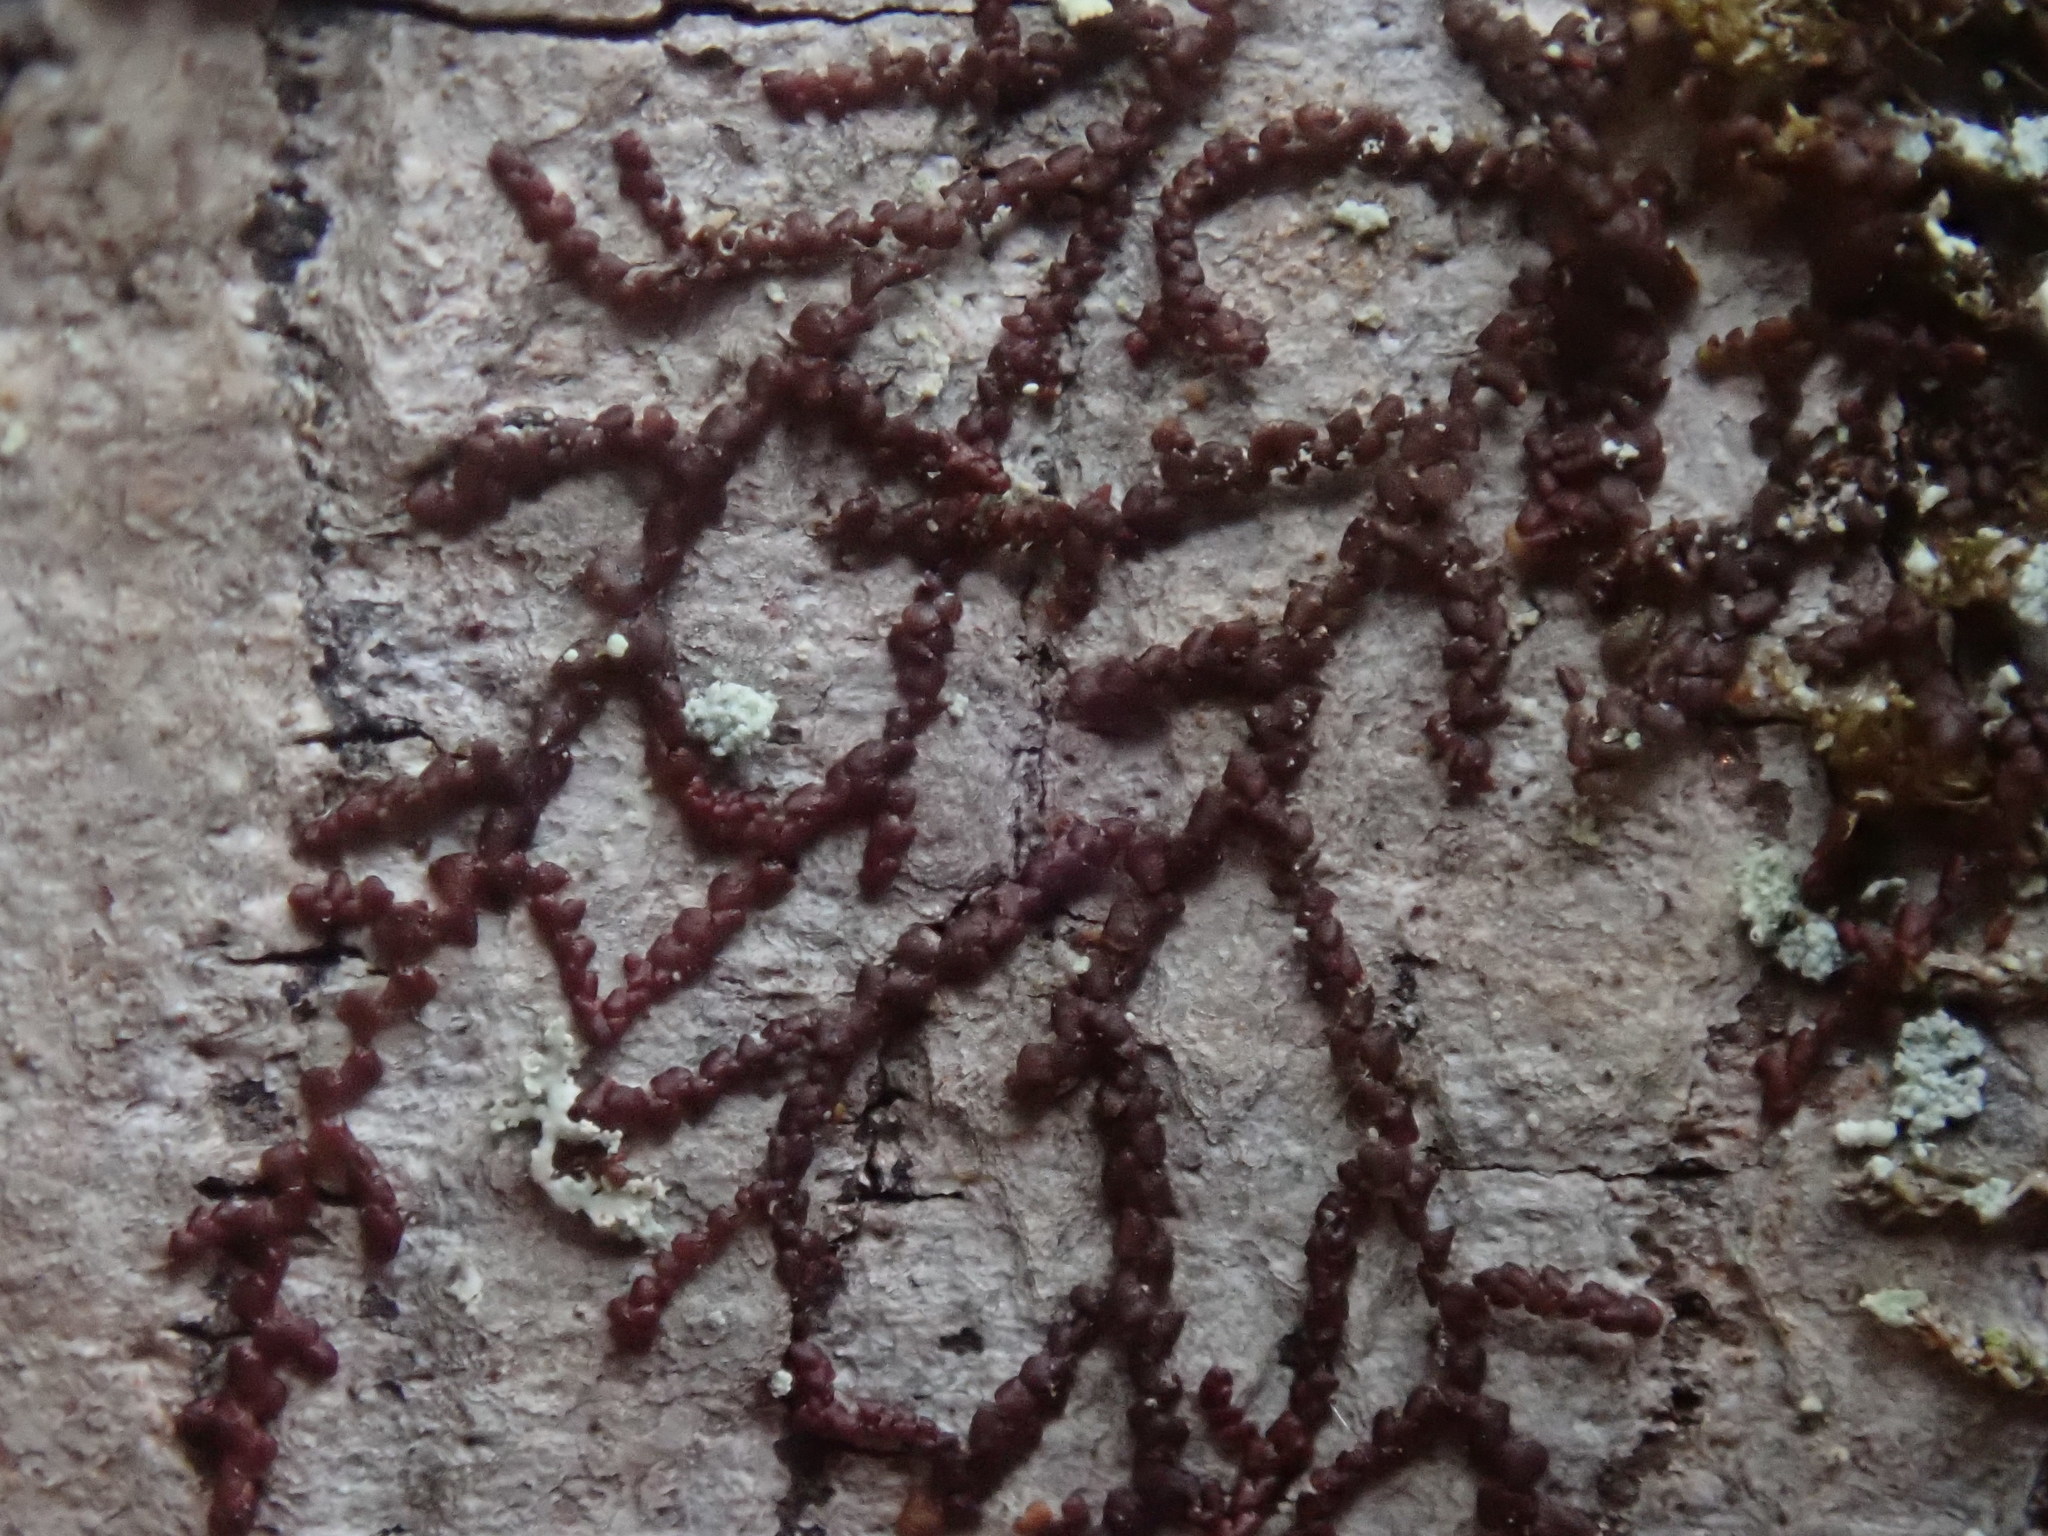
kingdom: Plantae
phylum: Marchantiophyta
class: Jungermanniopsida
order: Porellales
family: Frullaniaceae
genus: Frullania
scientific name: Frullania
